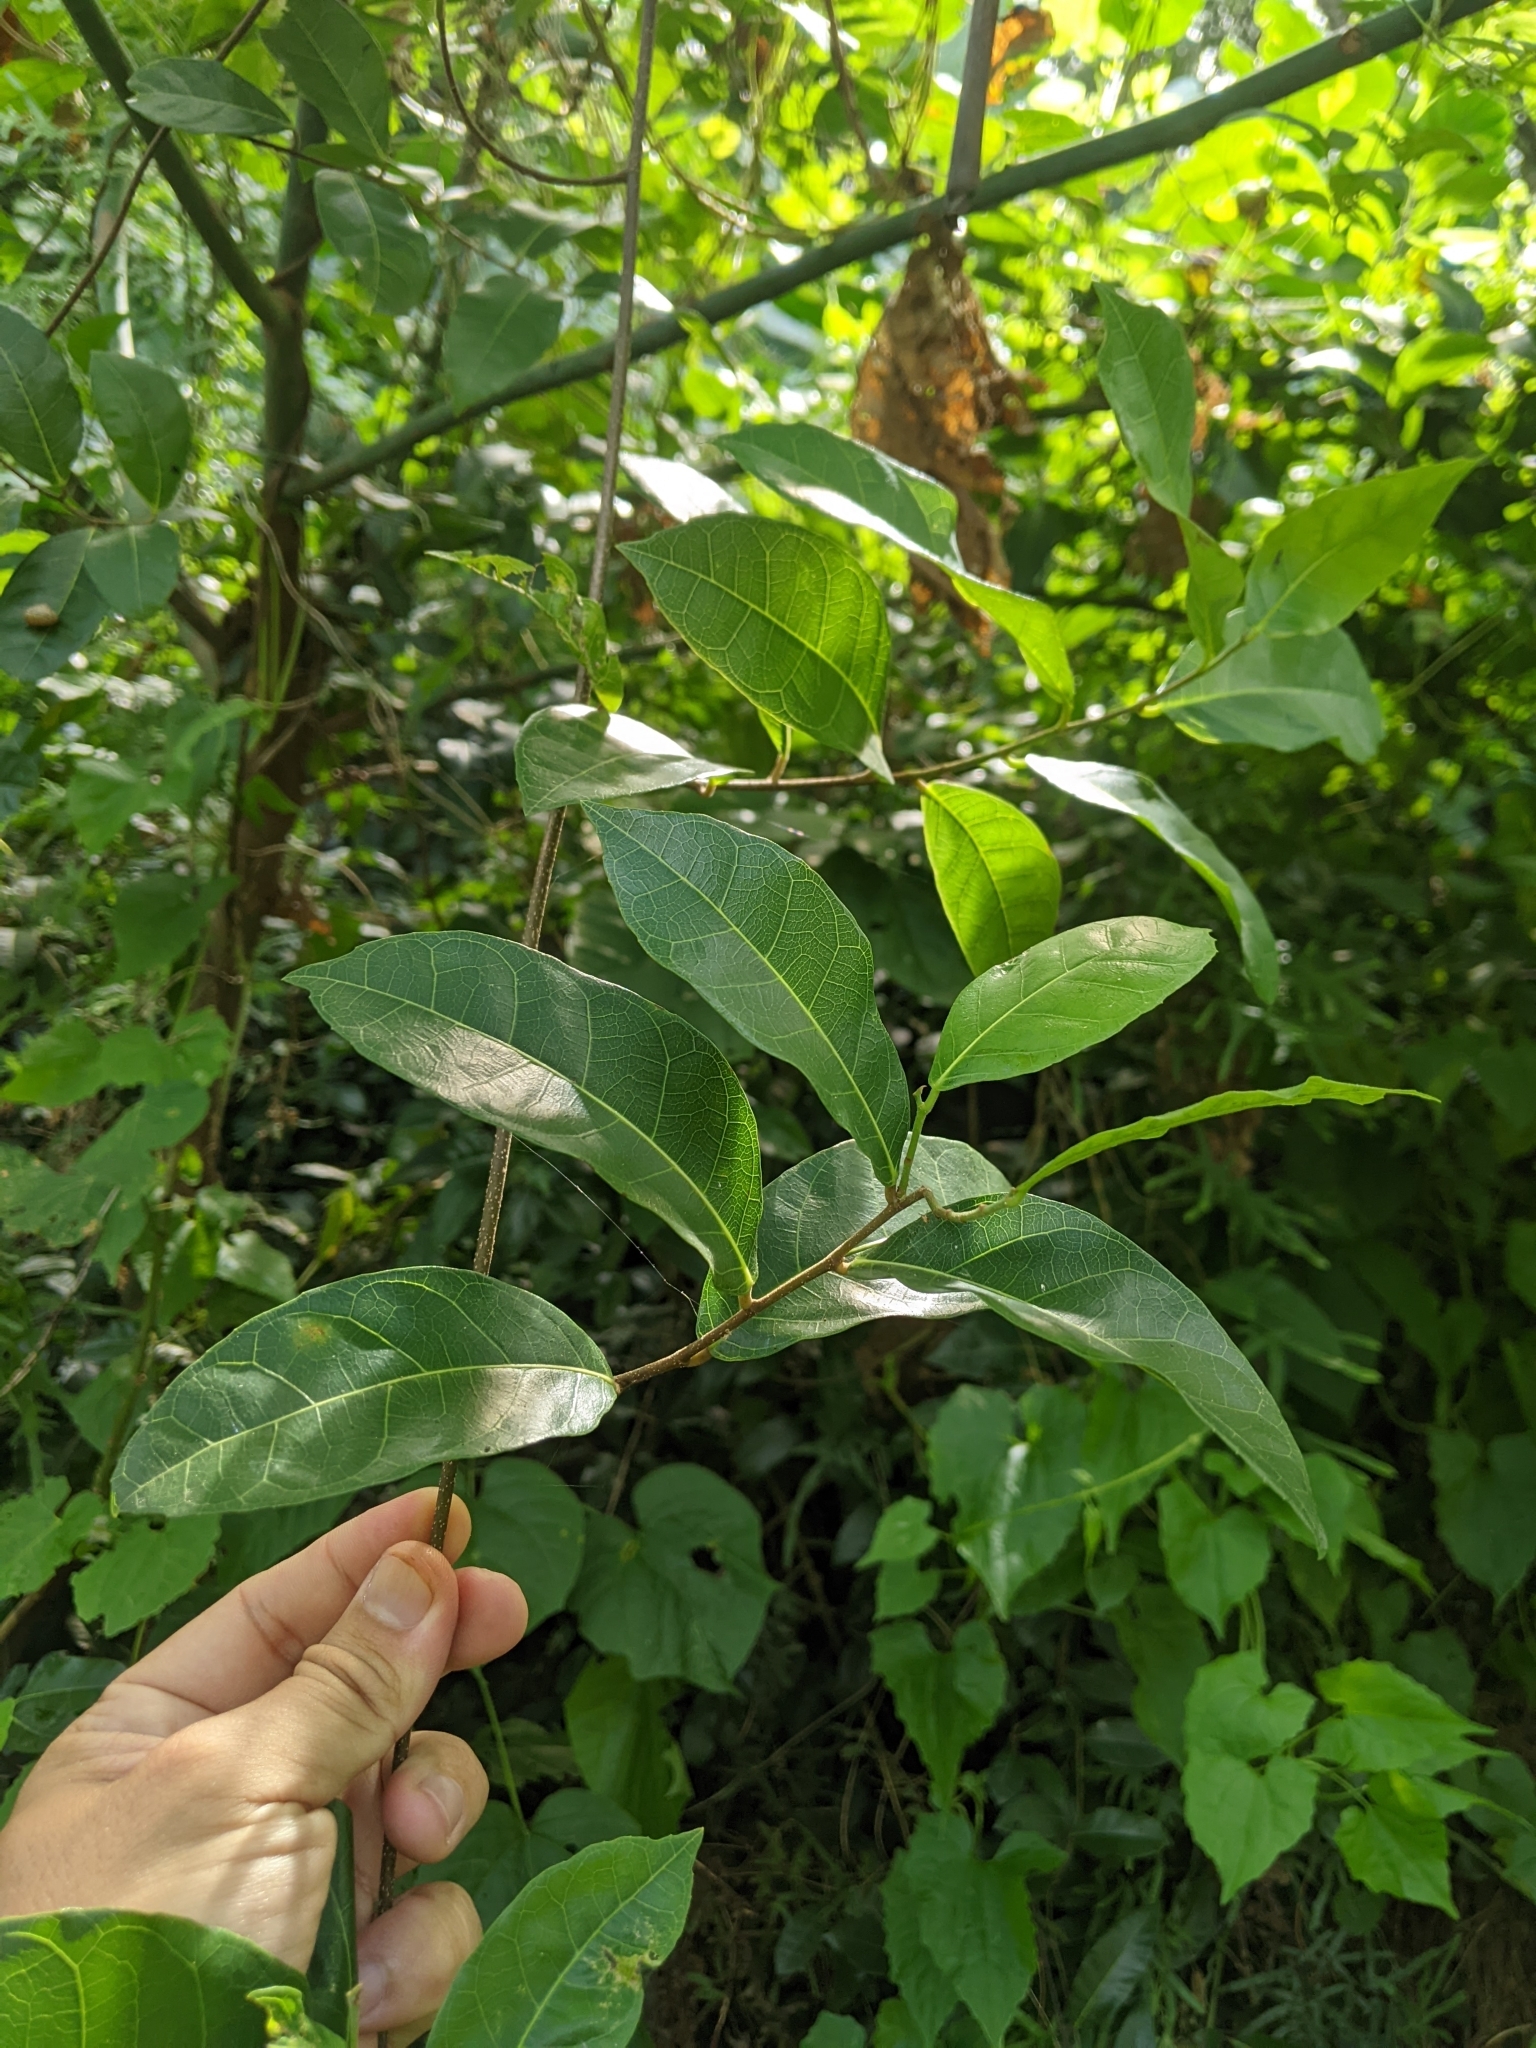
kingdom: Plantae
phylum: Tracheophyta
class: Magnoliopsida
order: Rosales
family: Moraceae
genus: Malaisia
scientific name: Malaisia scandens
